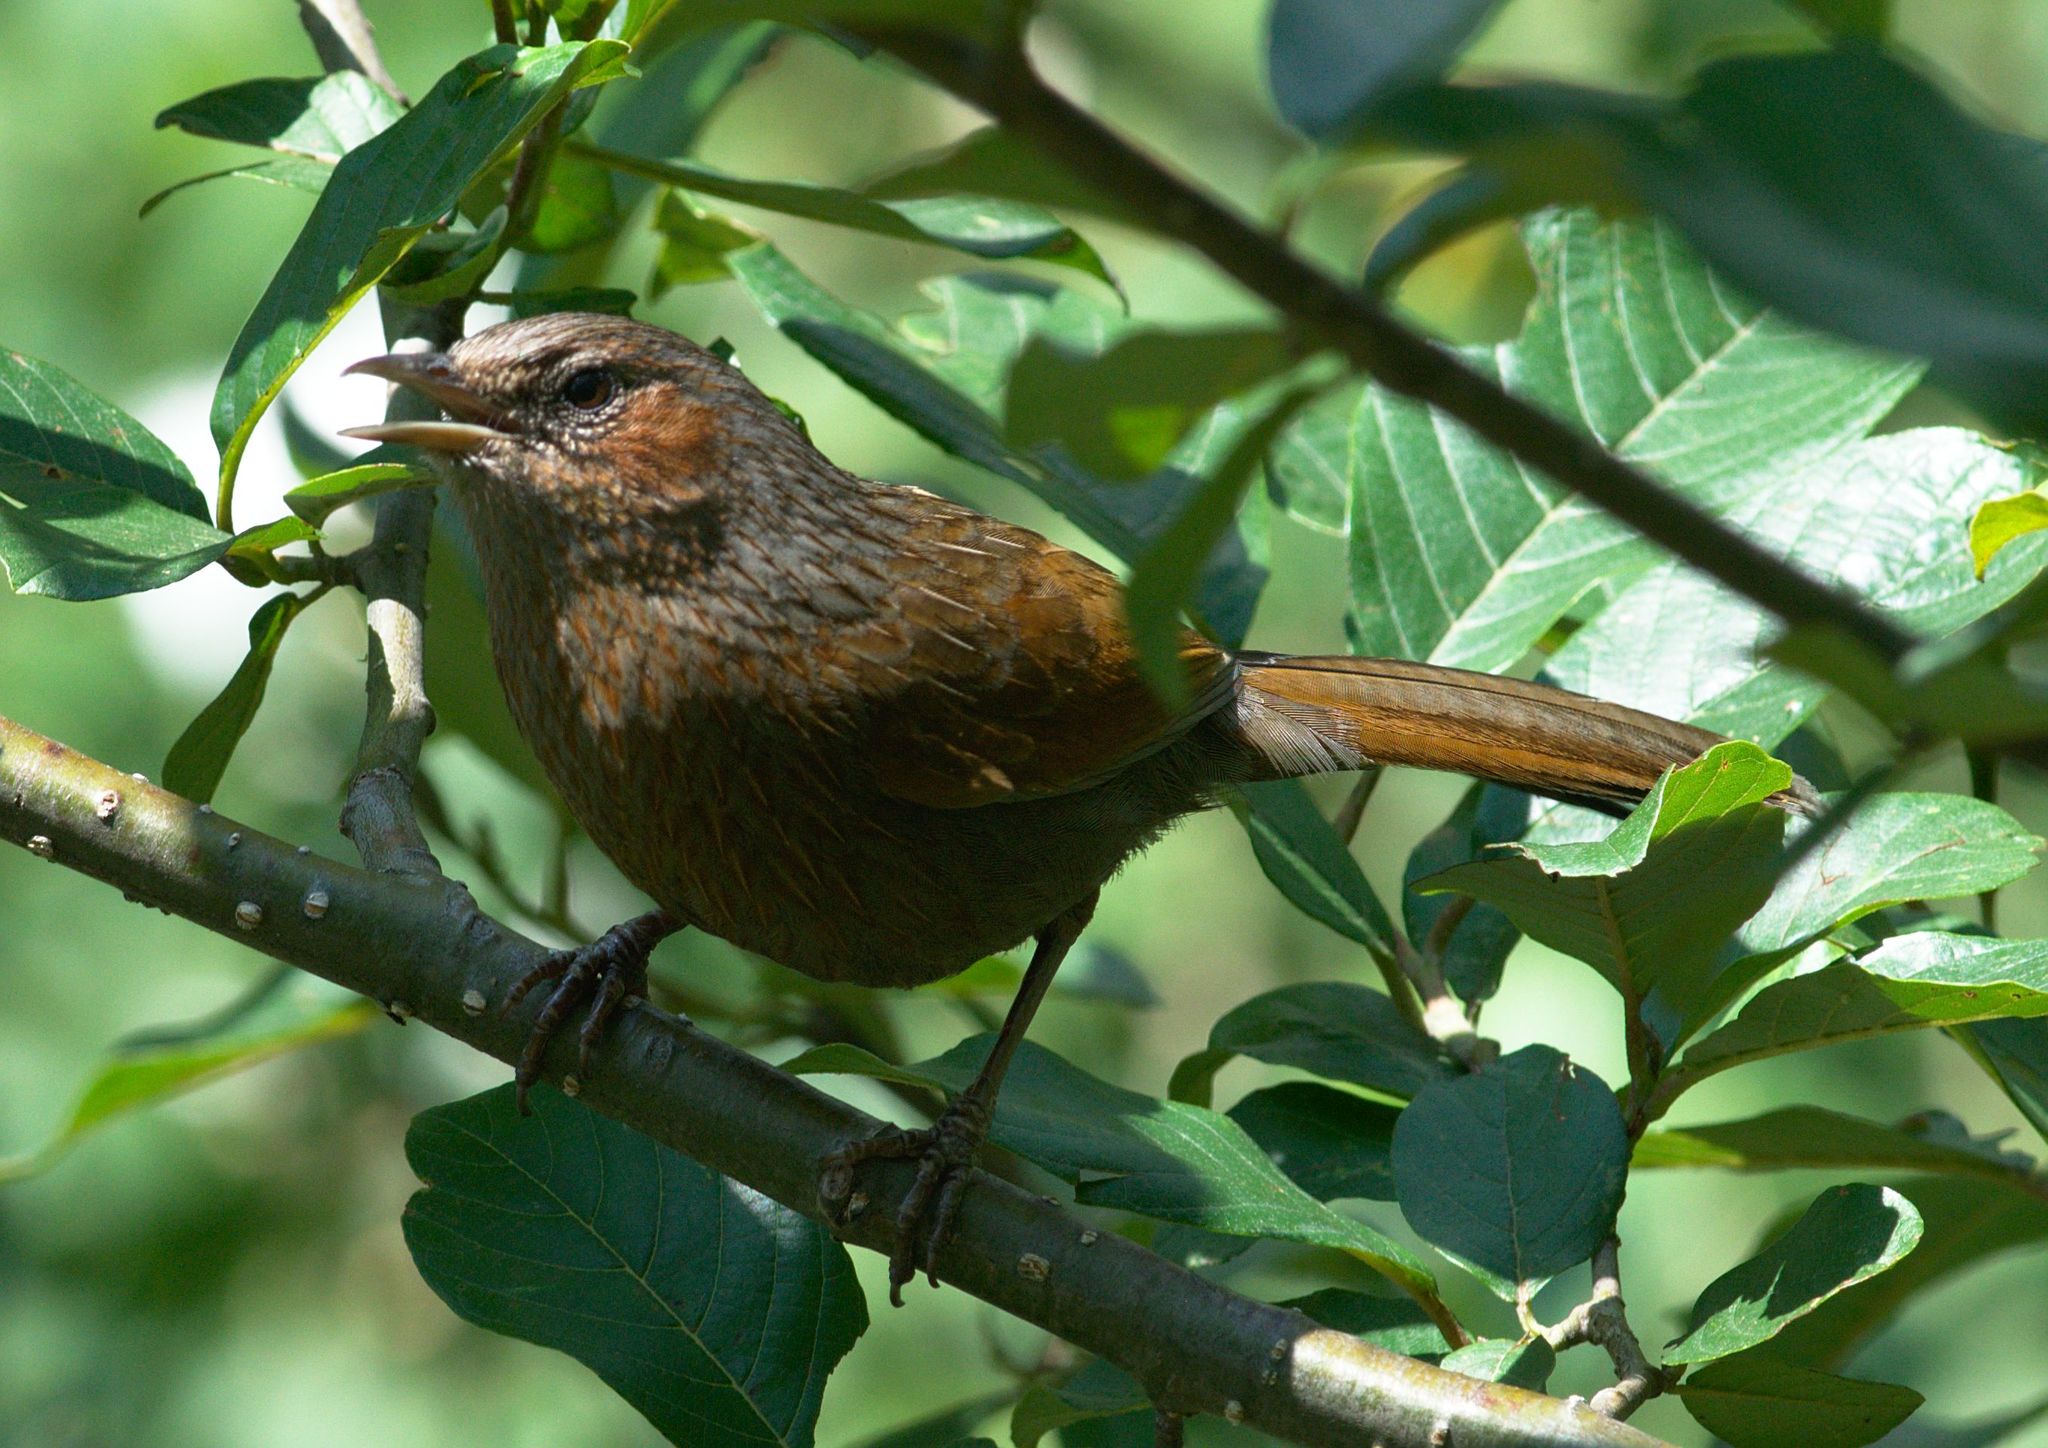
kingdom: Animalia
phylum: Chordata
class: Aves
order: Passeriformes
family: Leiothrichidae
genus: Trochalopteron
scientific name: Trochalopteron lineatum
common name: Streaked laughingthrush
